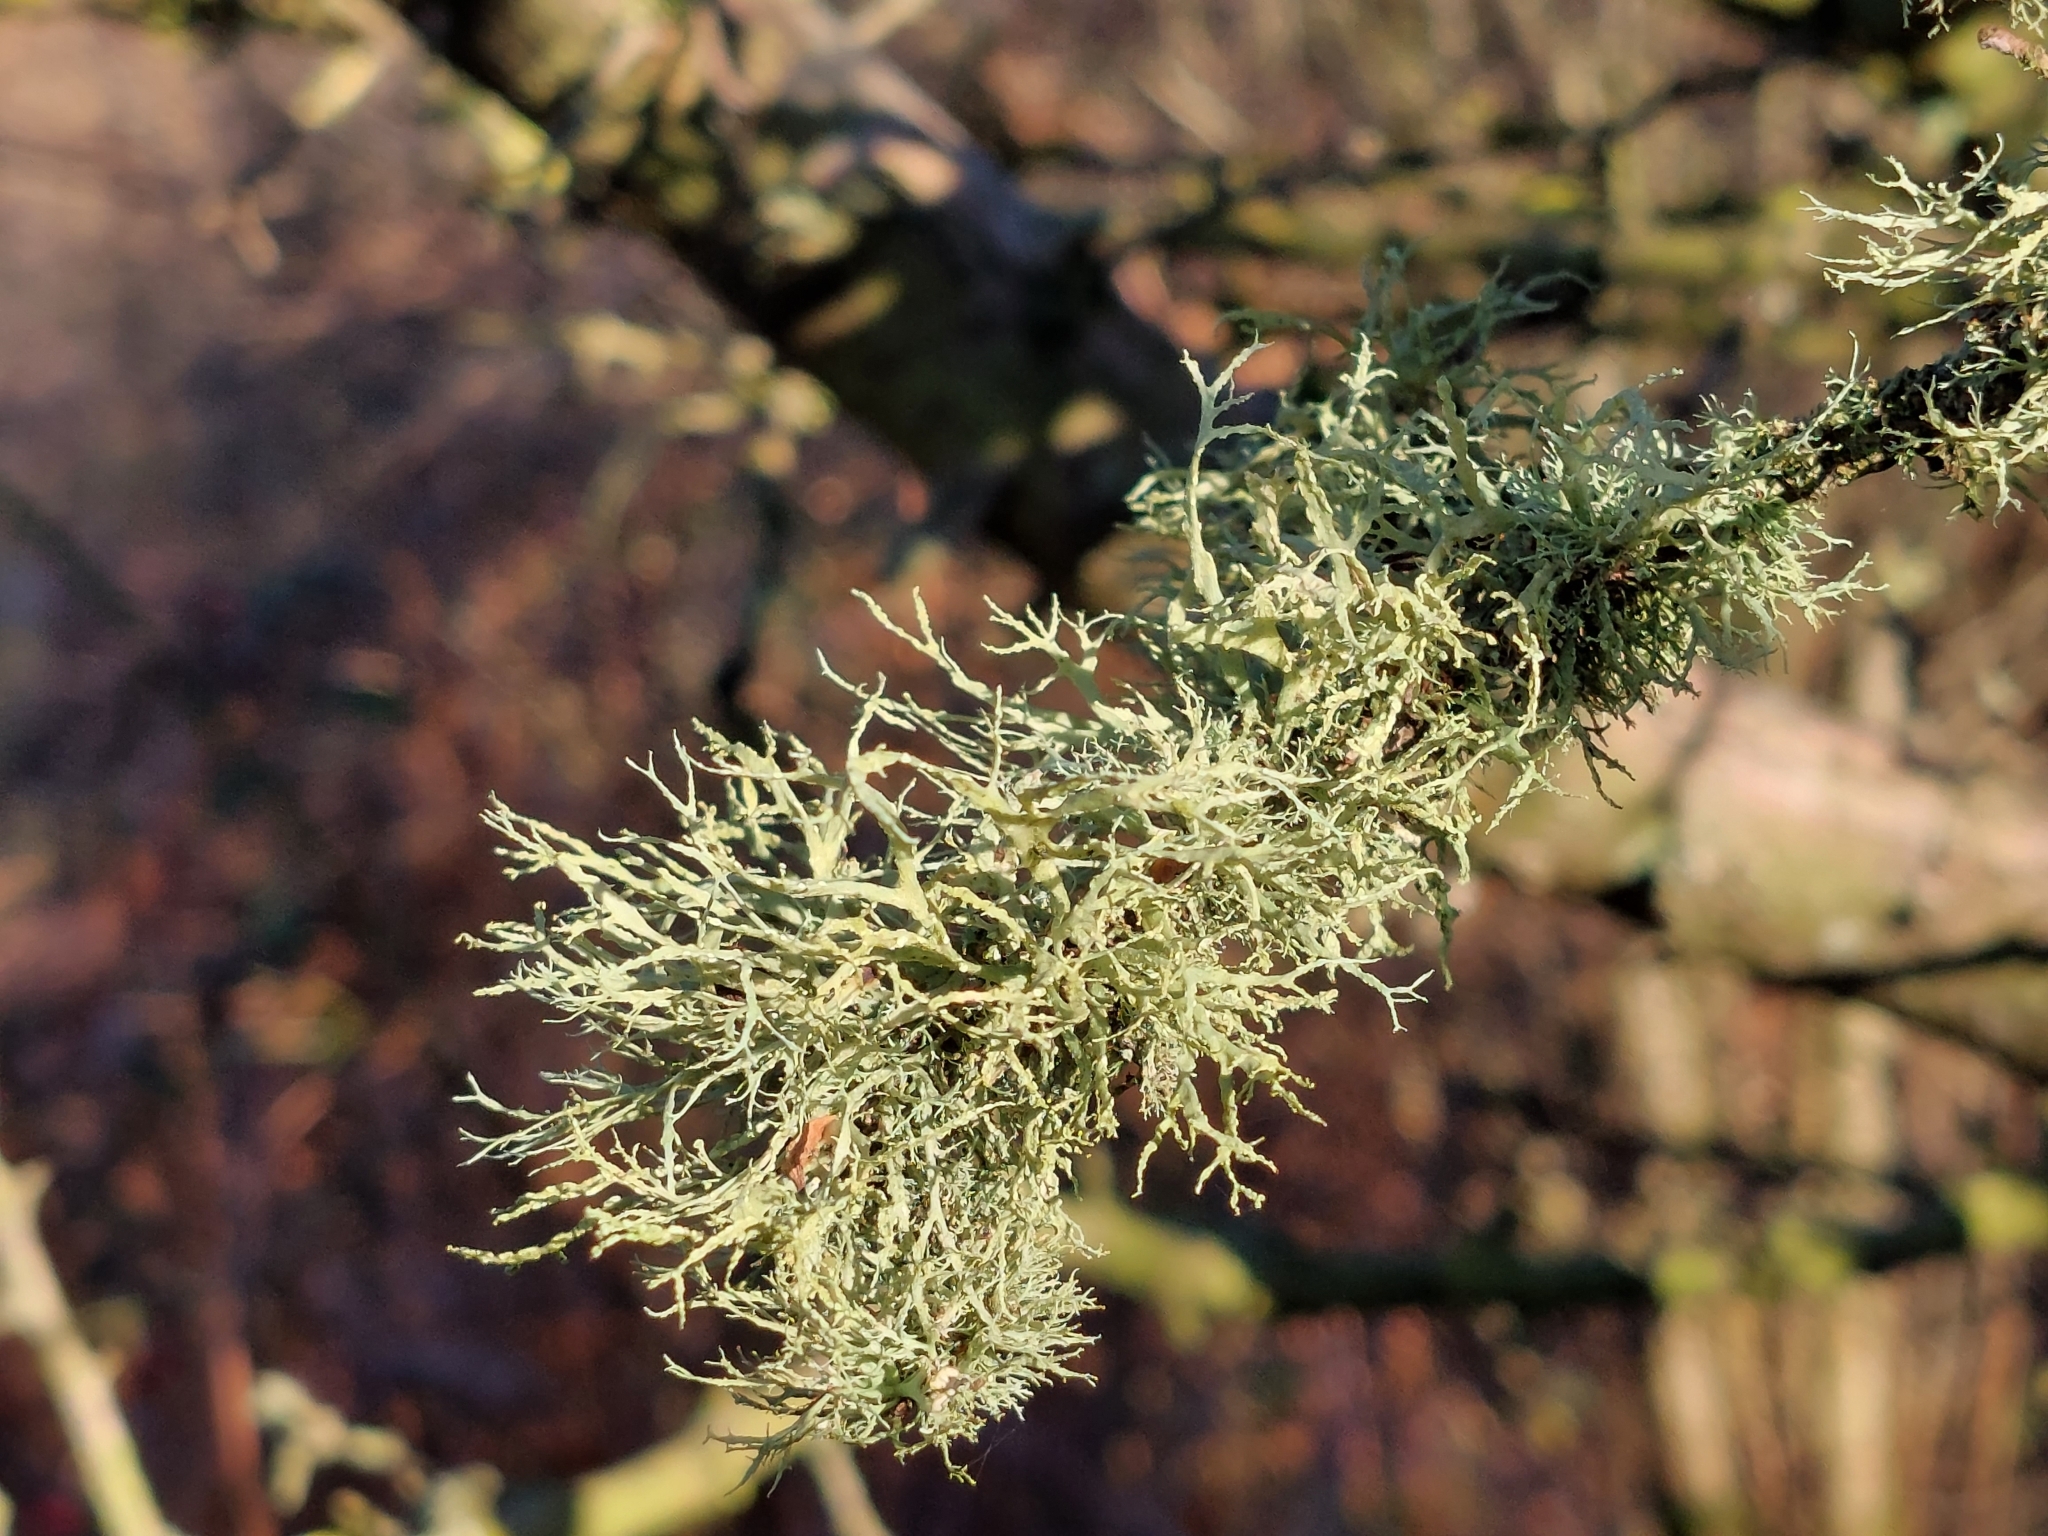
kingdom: Fungi
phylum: Ascomycota
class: Lecanoromycetes
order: Lecanorales
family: Ramalinaceae
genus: Ramalina
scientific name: Ramalina farinacea
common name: Farinose cartilage lichen
